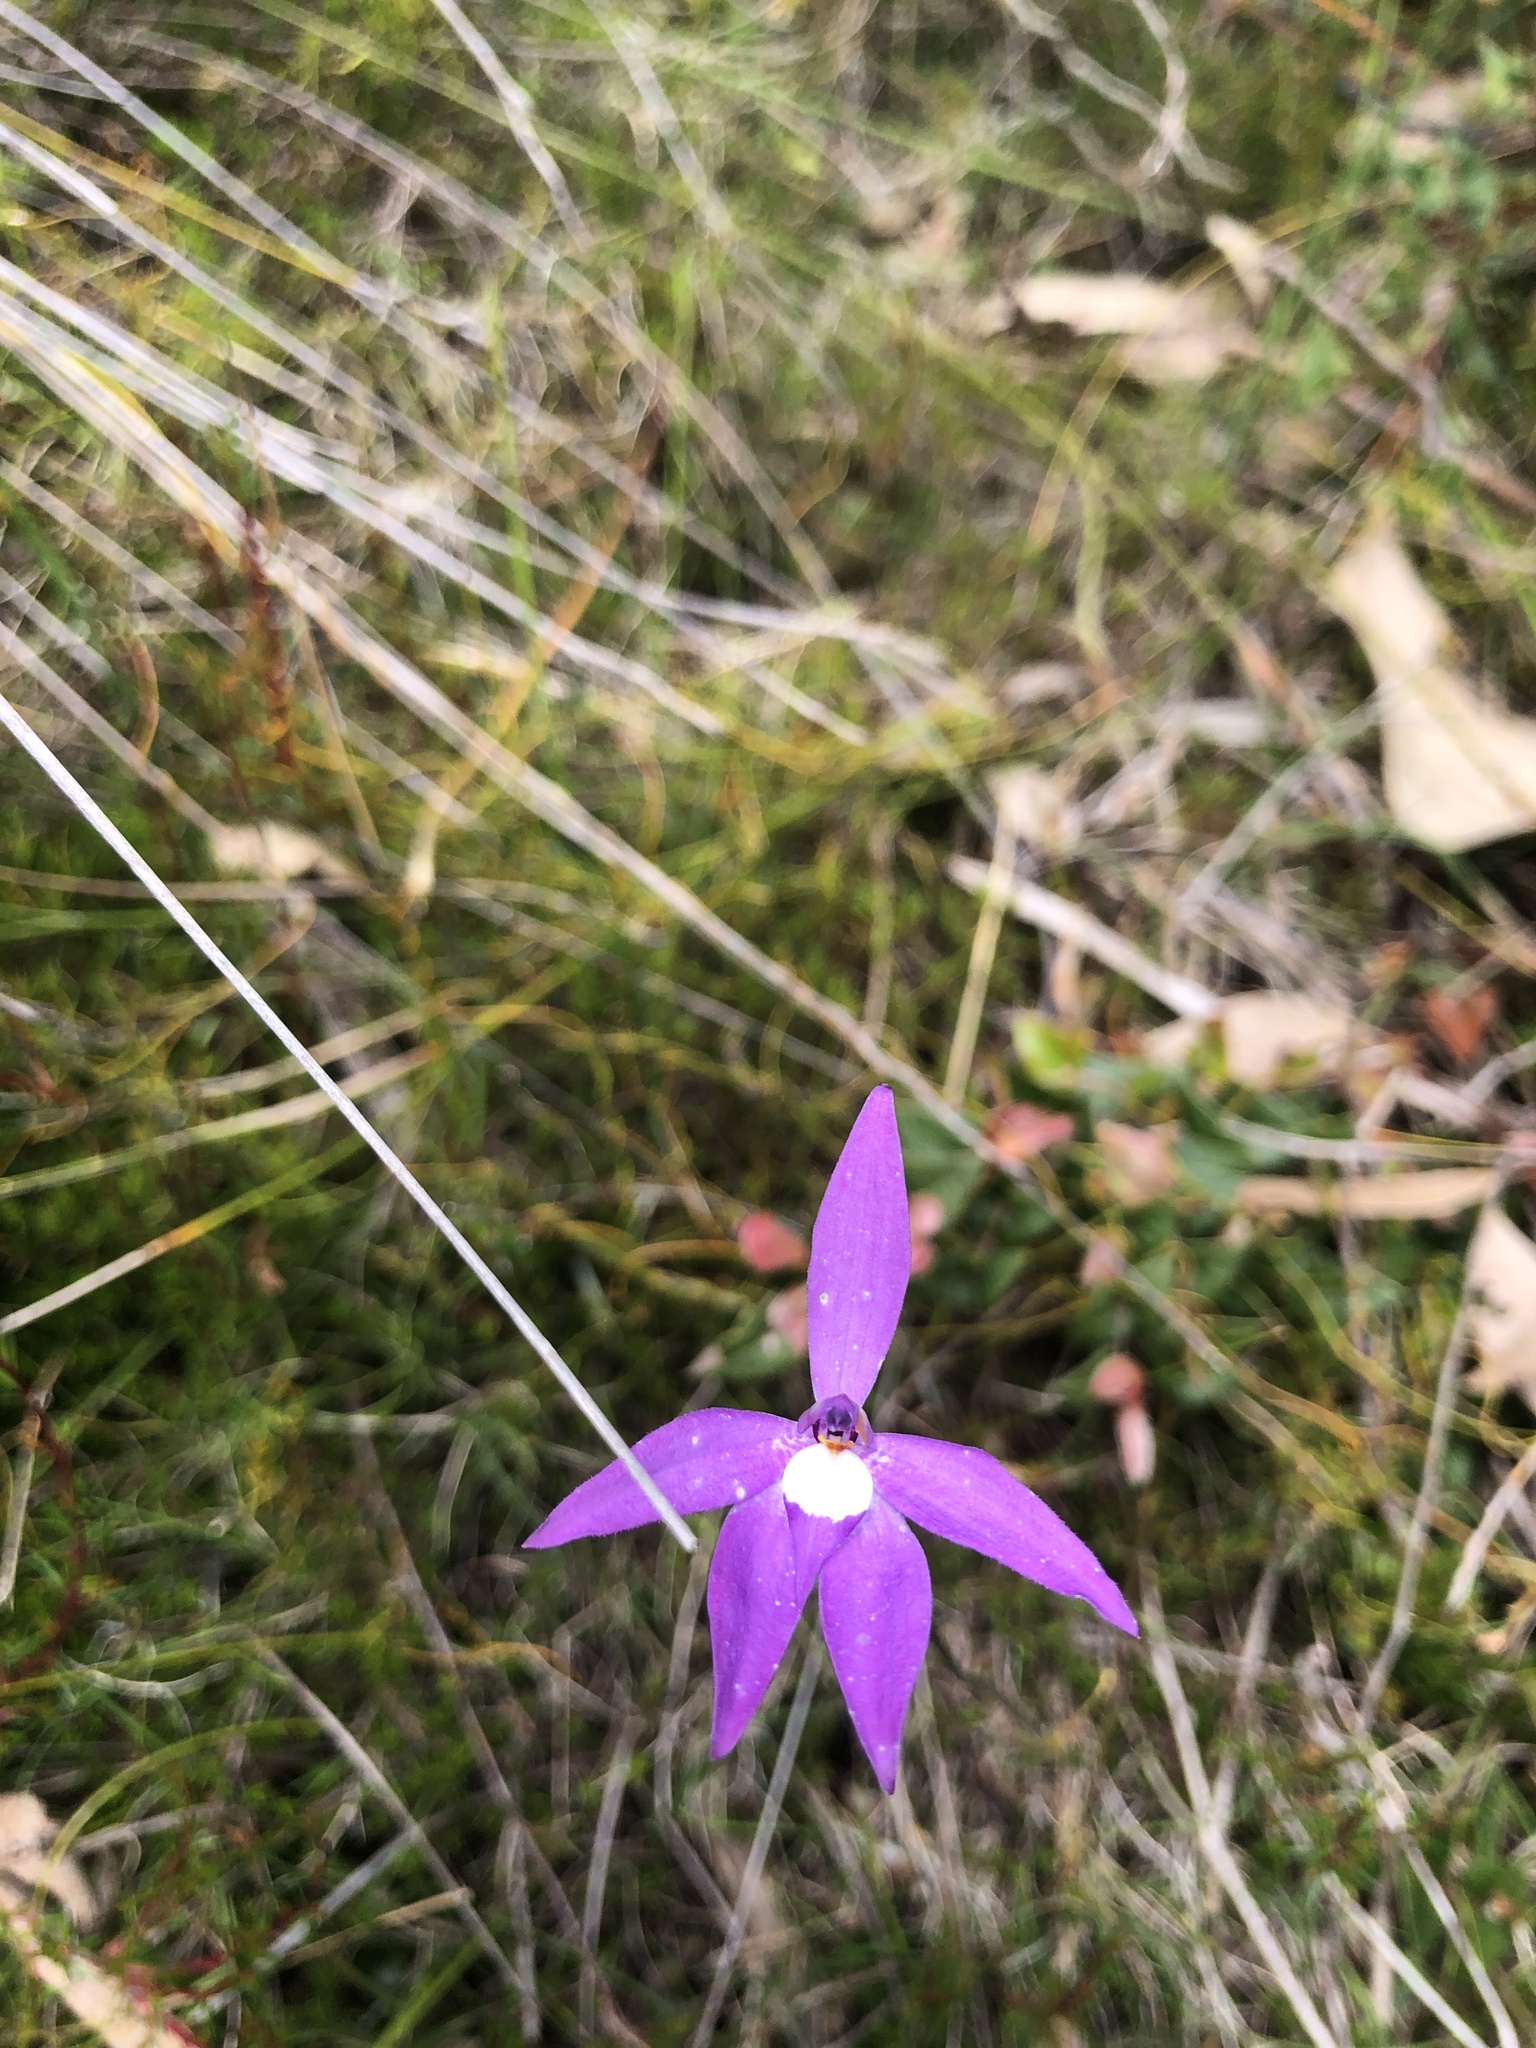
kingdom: Plantae
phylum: Tracheophyta
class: Liliopsida
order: Asparagales
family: Orchidaceae
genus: Caladenia
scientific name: Caladenia major
